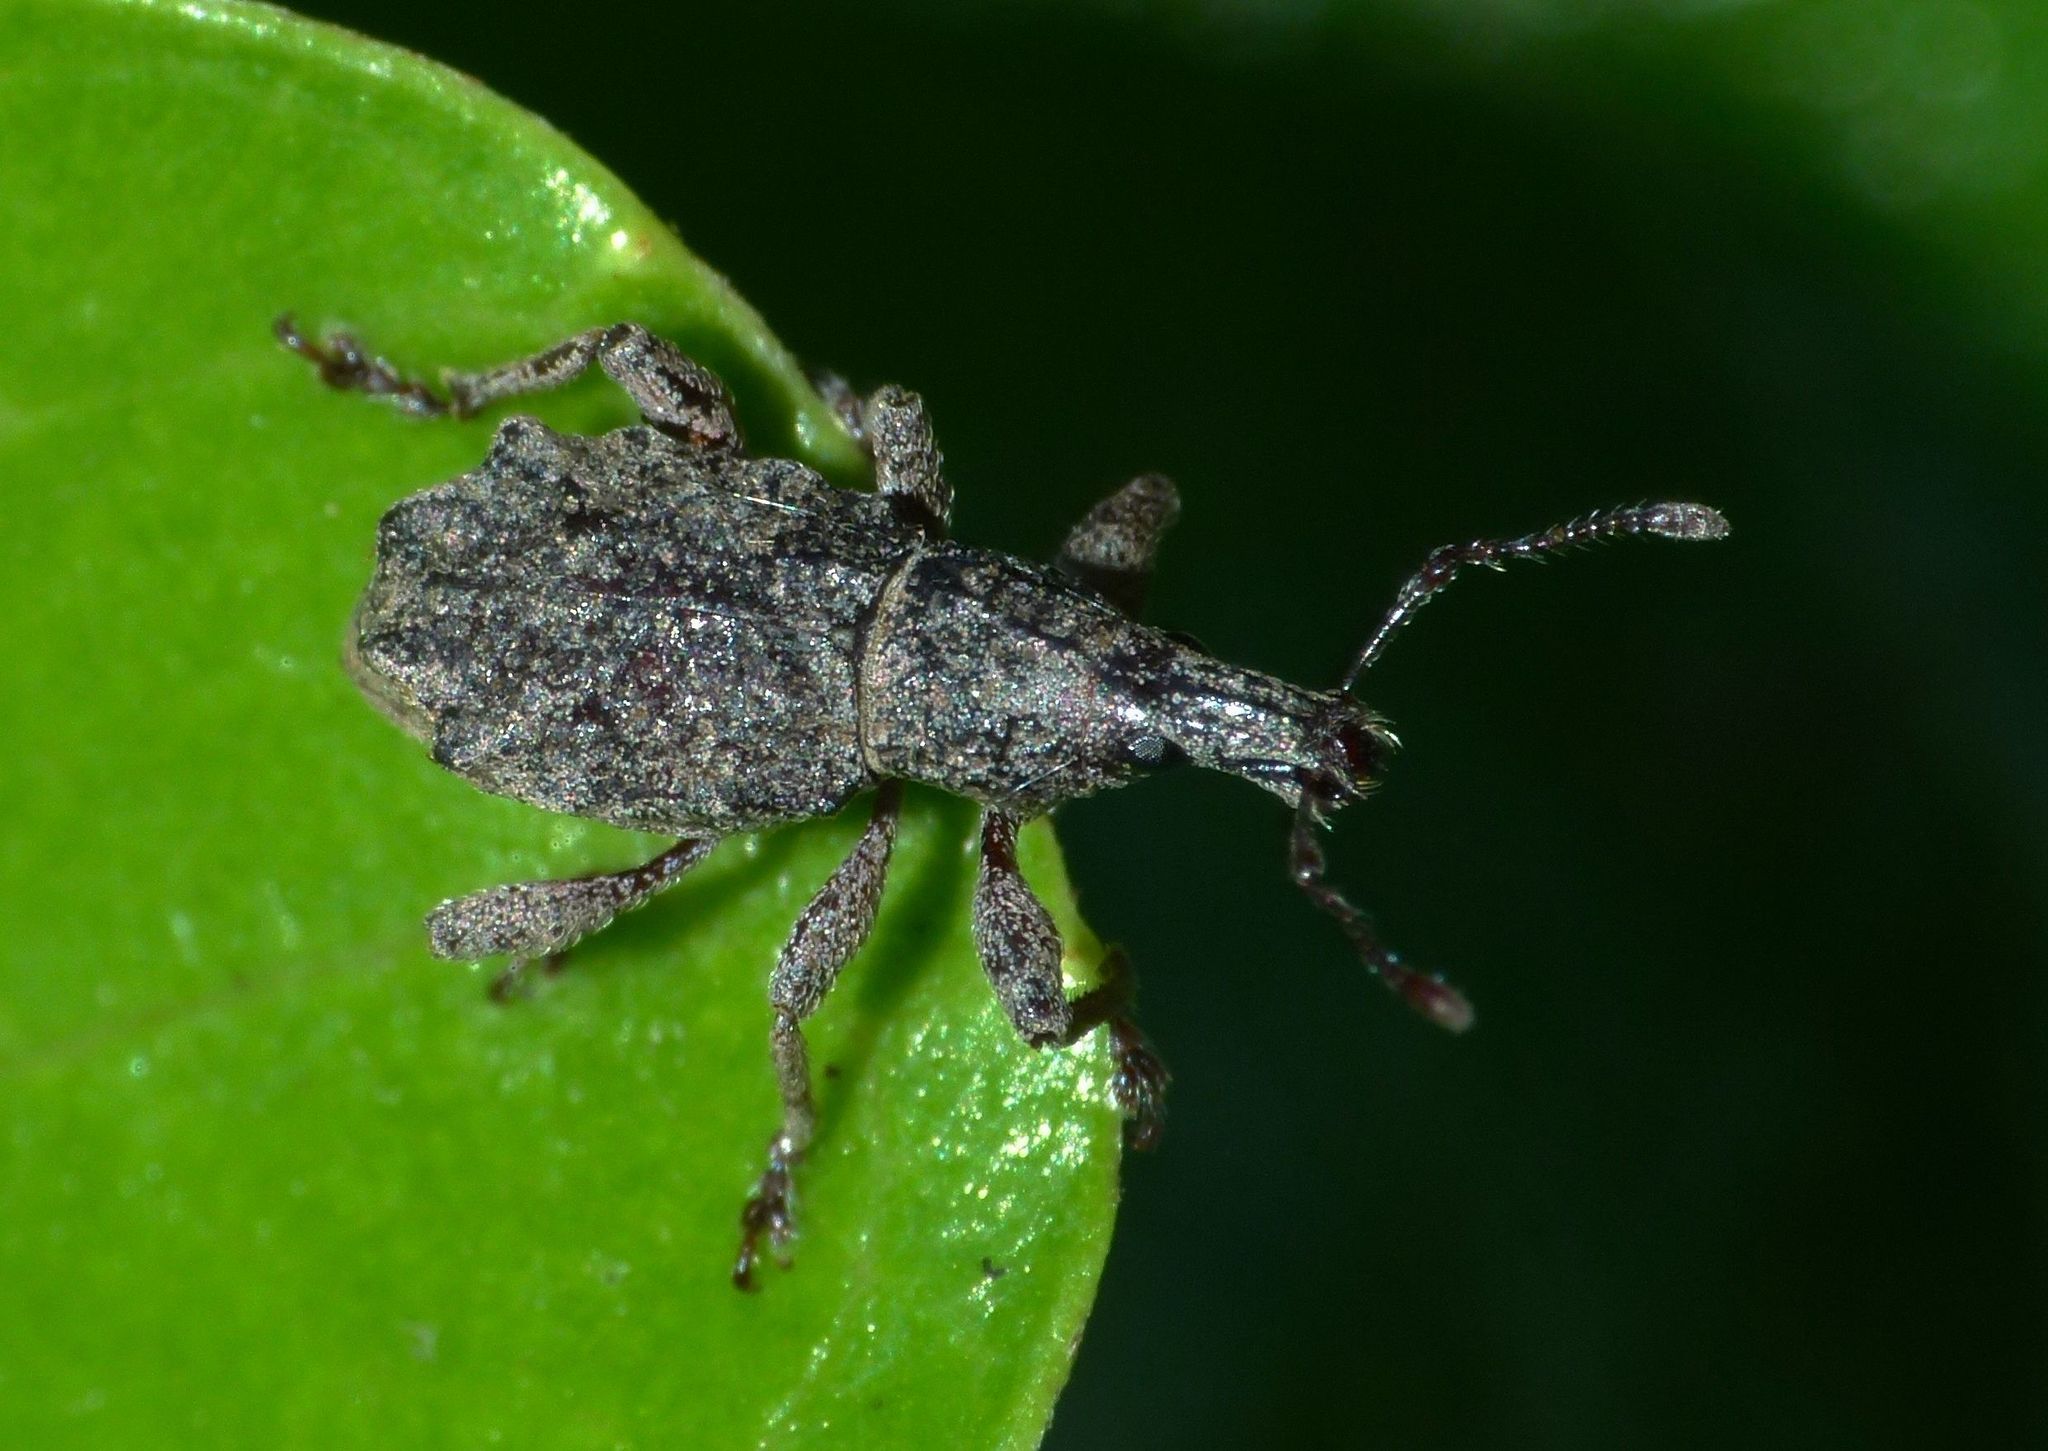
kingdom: Animalia
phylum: Arthropoda
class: Insecta
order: Coleoptera
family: Curculionidae
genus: Catoptes
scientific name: Catoptes censorius
